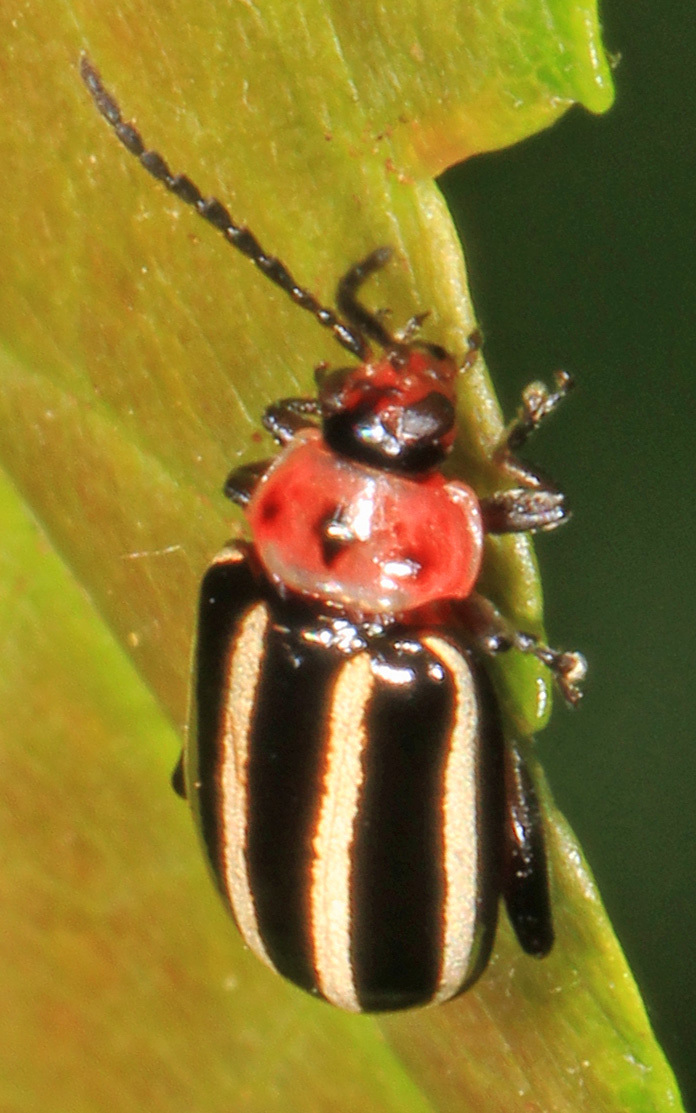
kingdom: Animalia
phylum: Arthropoda
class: Insecta
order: Coleoptera
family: Chrysomelidae
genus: Disonycha
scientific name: Disonycha glabrata
